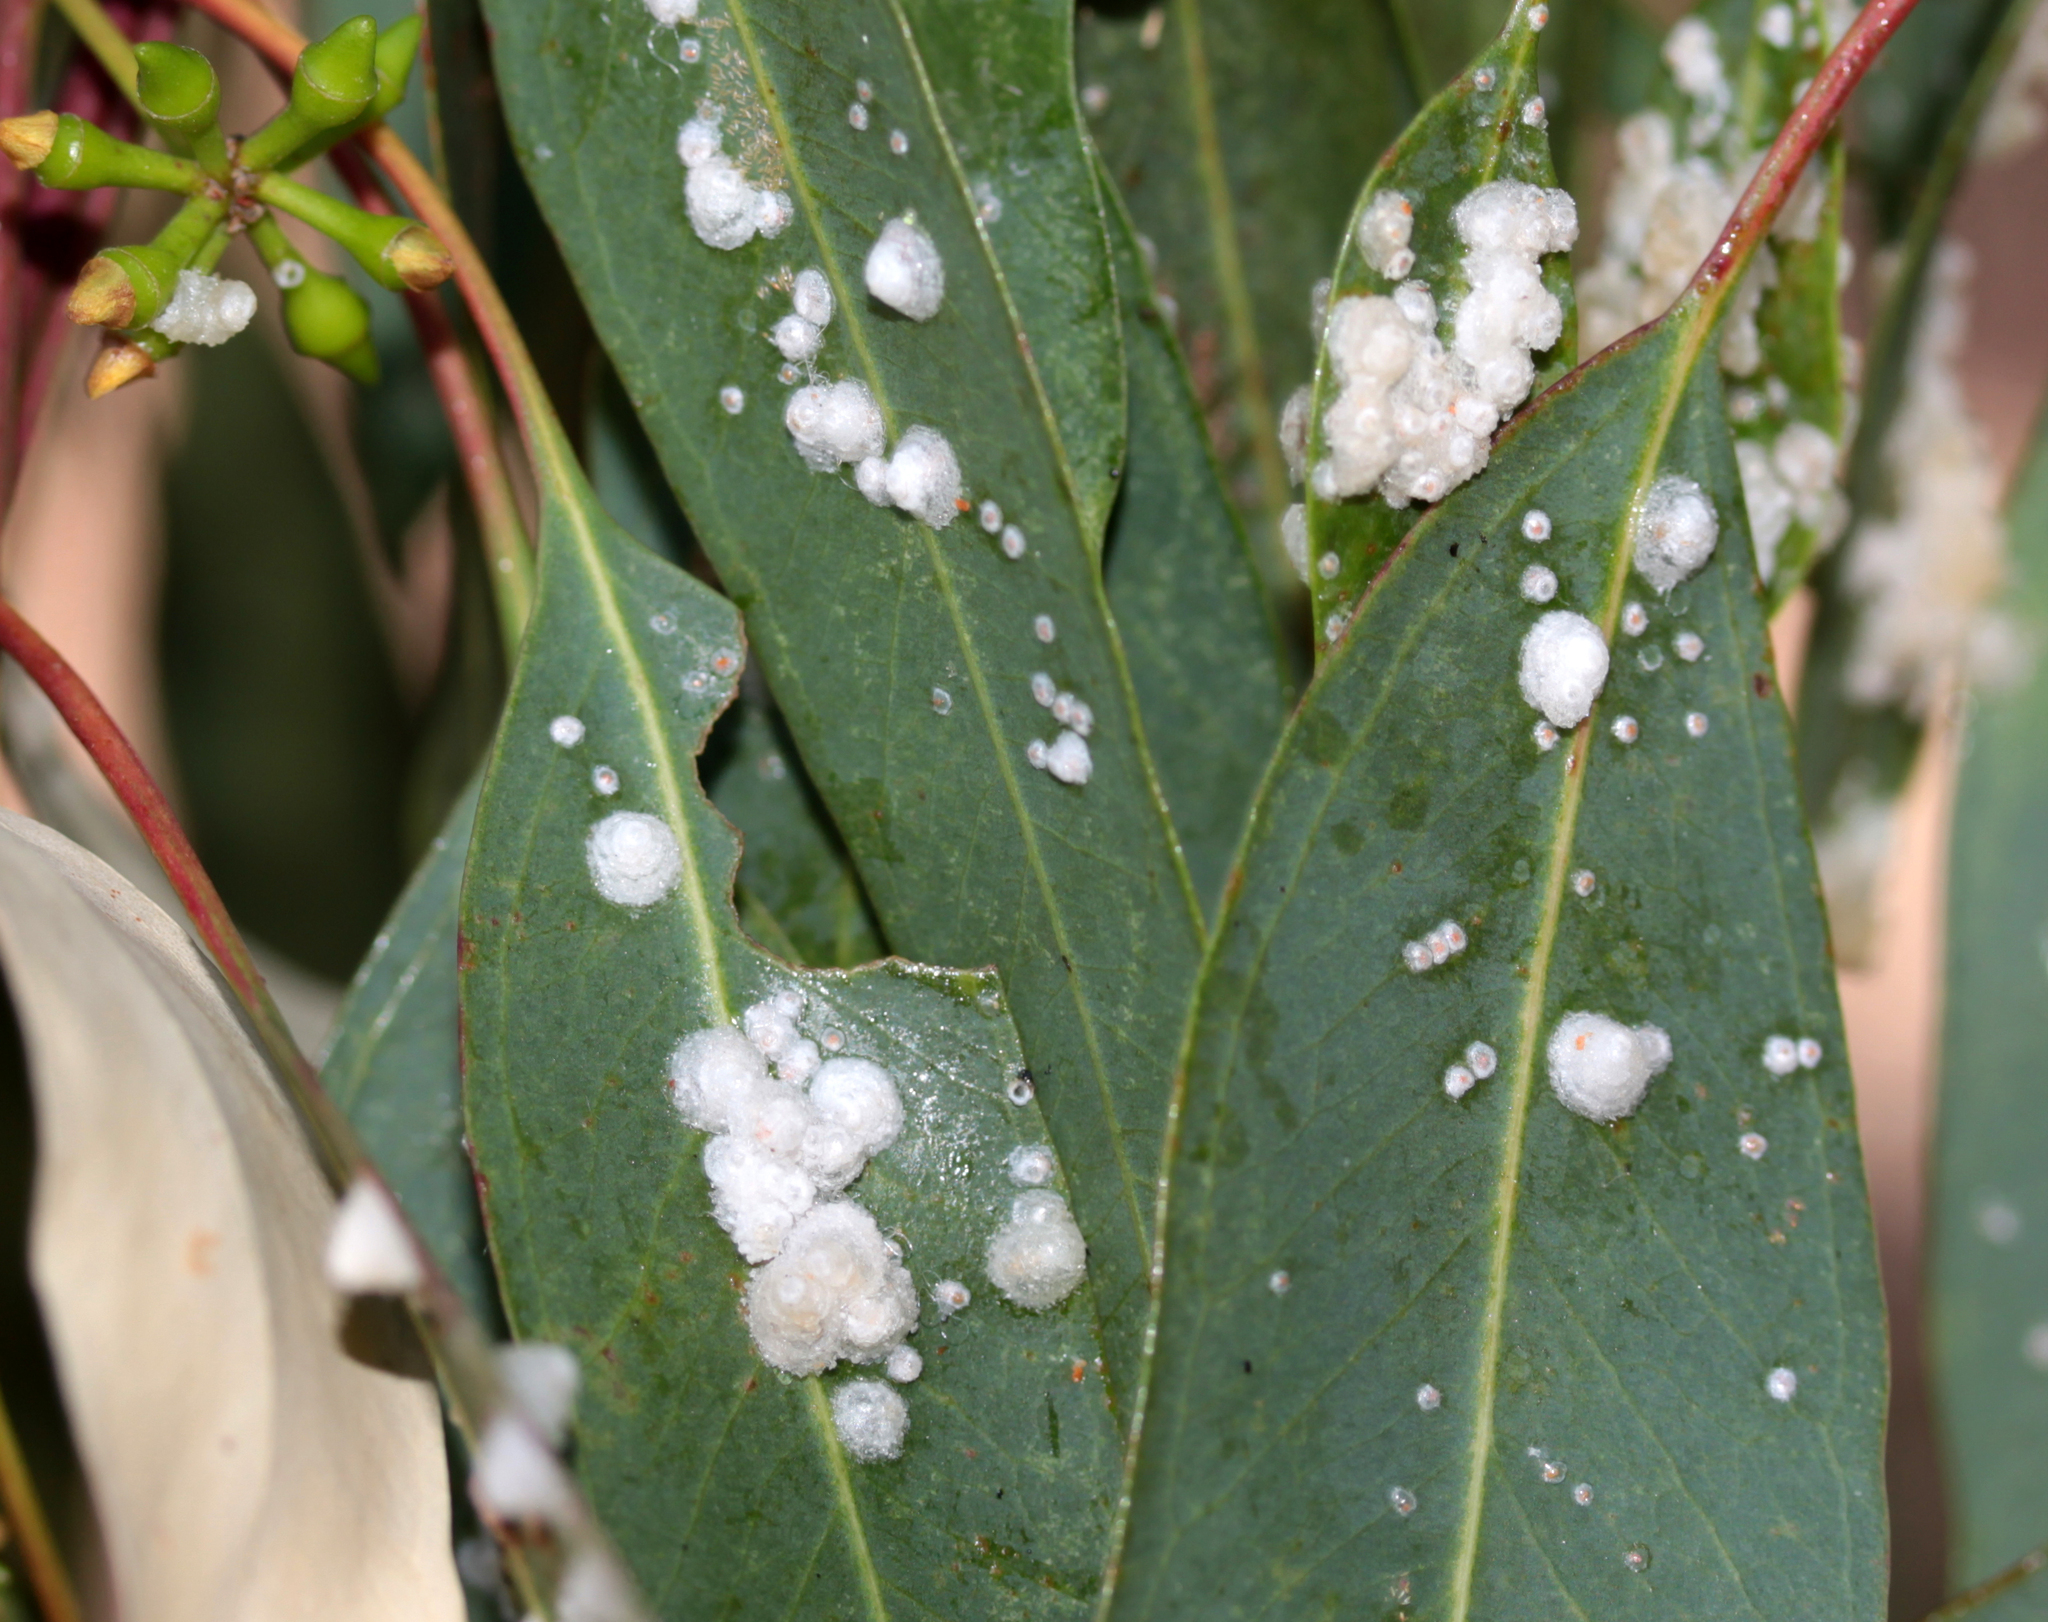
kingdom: Animalia
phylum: Arthropoda
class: Insecta
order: Hemiptera
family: Aphalaridae
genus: Glycaspis
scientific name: Glycaspis brimblecombei
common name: Red gum lerp psyllid
